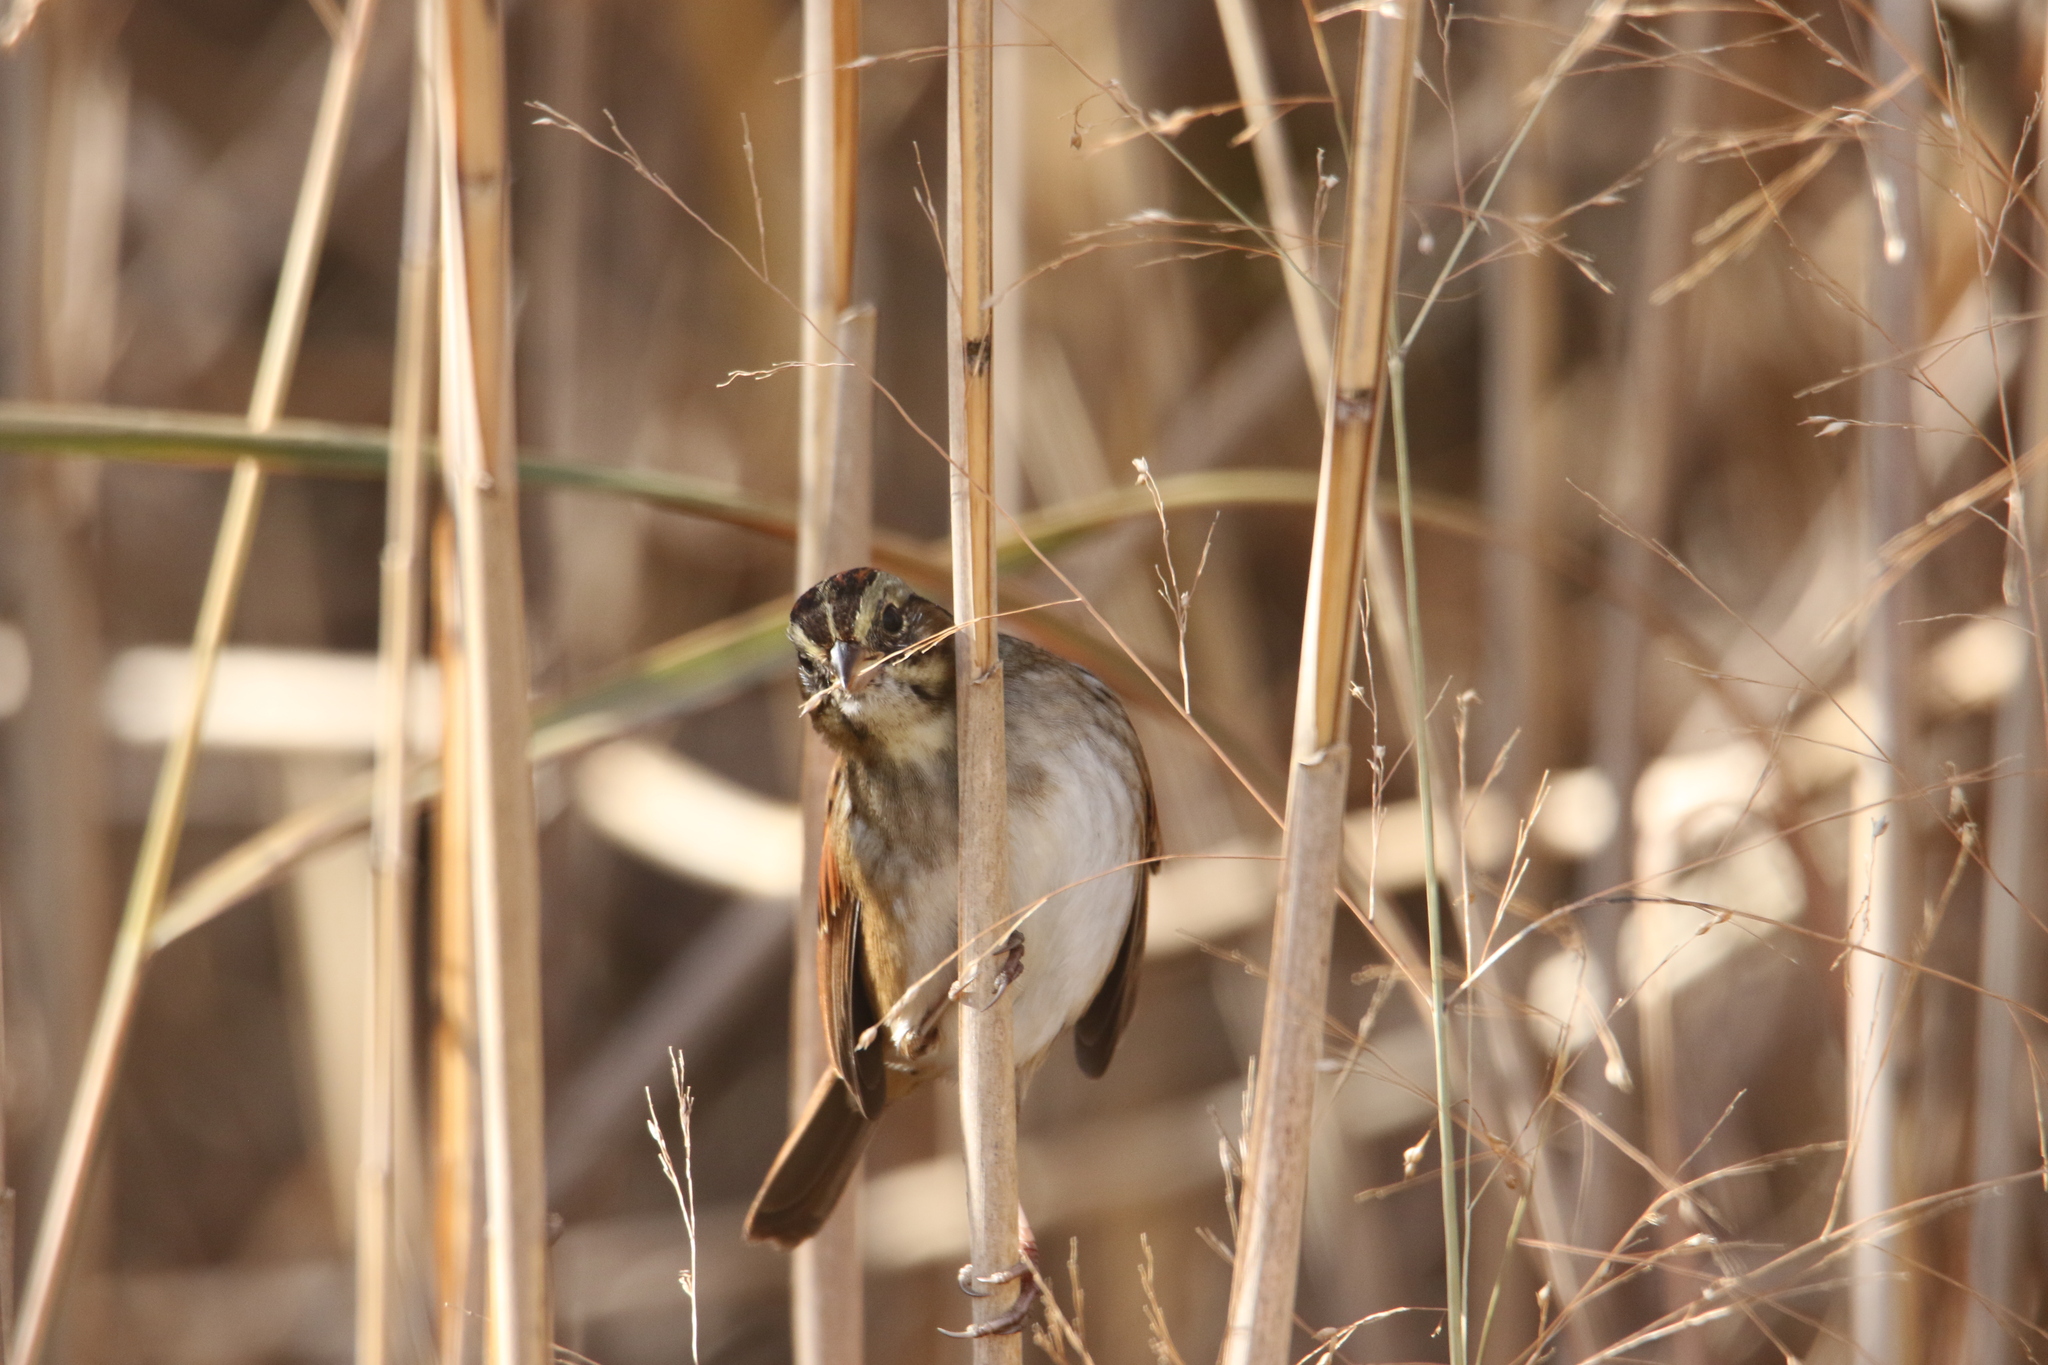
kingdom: Animalia
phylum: Chordata
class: Aves
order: Passeriformes
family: Passerellidae
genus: Melospiza
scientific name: Melospiza georgiana
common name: Swamp sparrow
